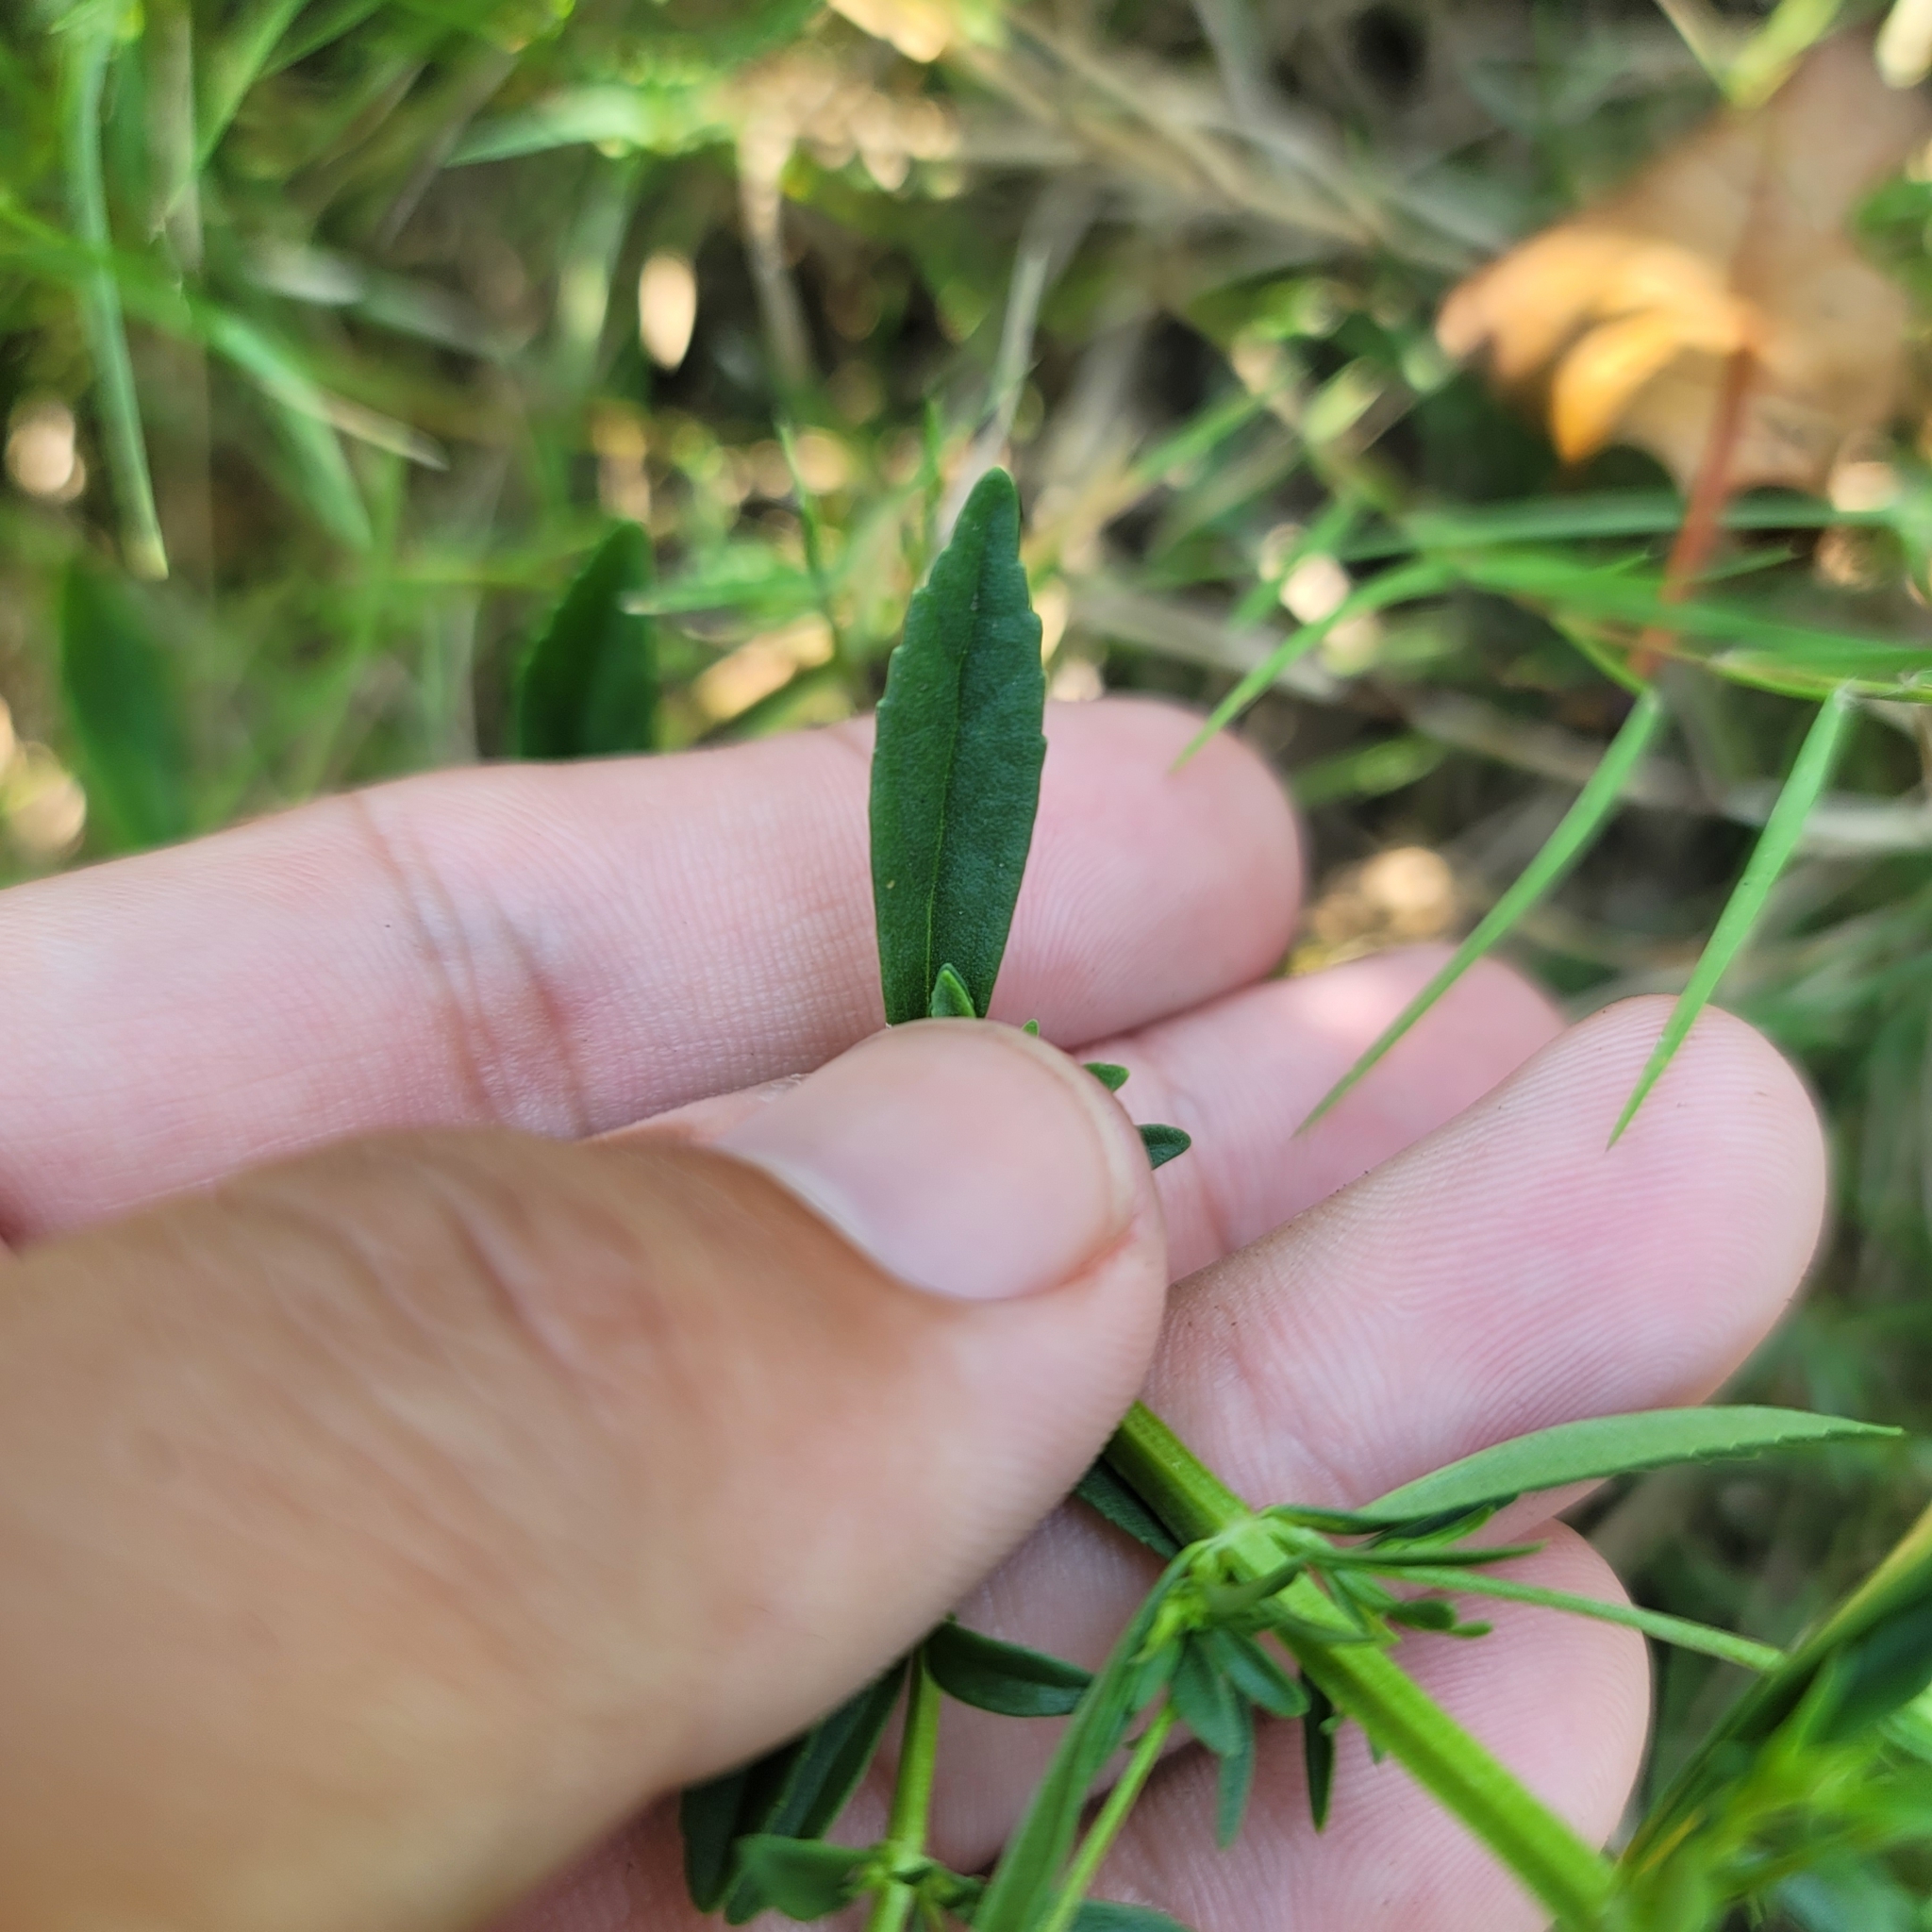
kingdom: Plantae
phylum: Tracheophyta
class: Magnoliopsida
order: Lamiales
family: Plantaginaceae
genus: Mecardonia
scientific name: Mecardonia acuminata
